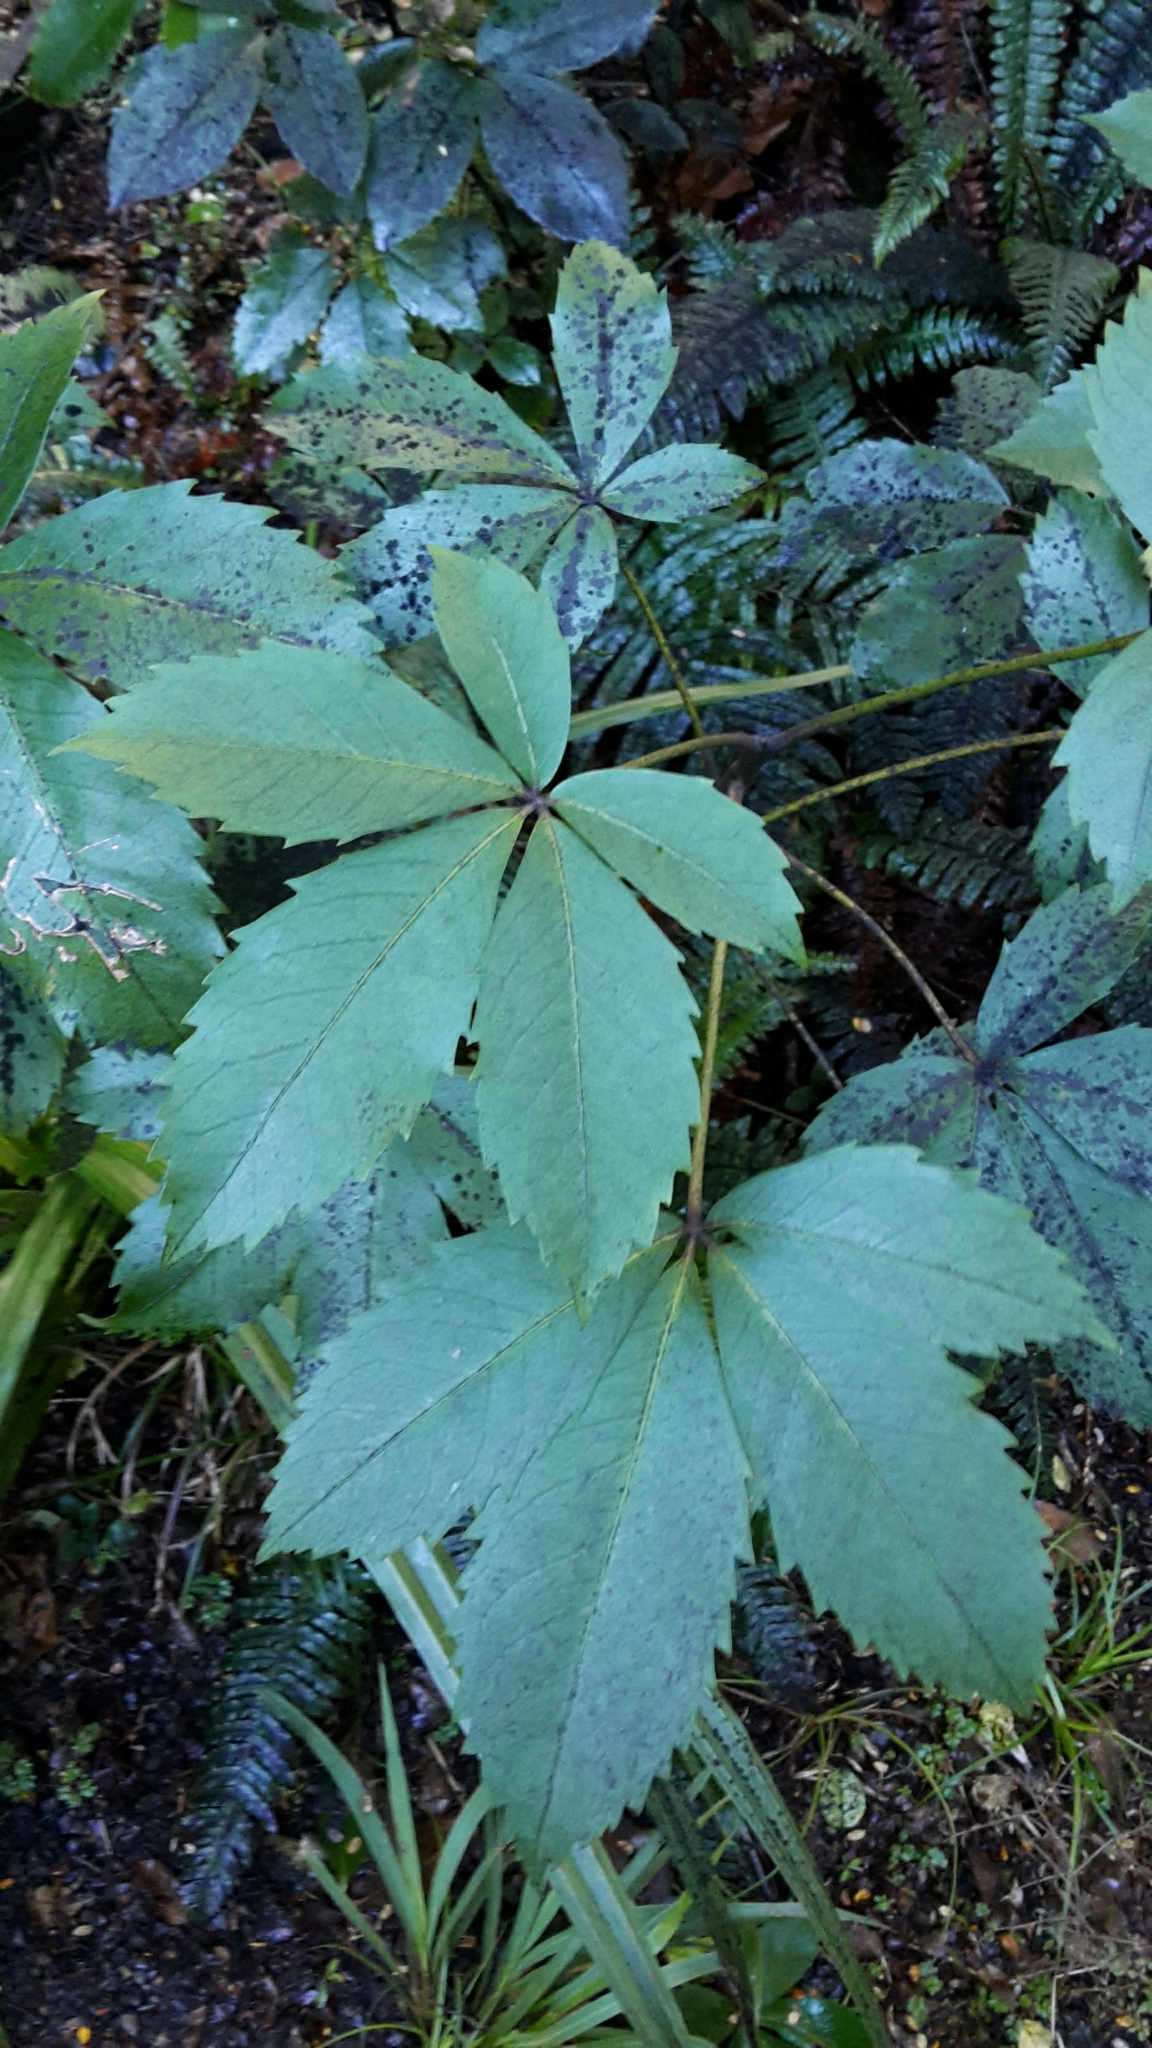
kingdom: Plantae
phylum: Tracheophyta
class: Magnoliopsida
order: Apiales
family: Araliaceae
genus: Neopanax
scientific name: Neopanax colensoi
